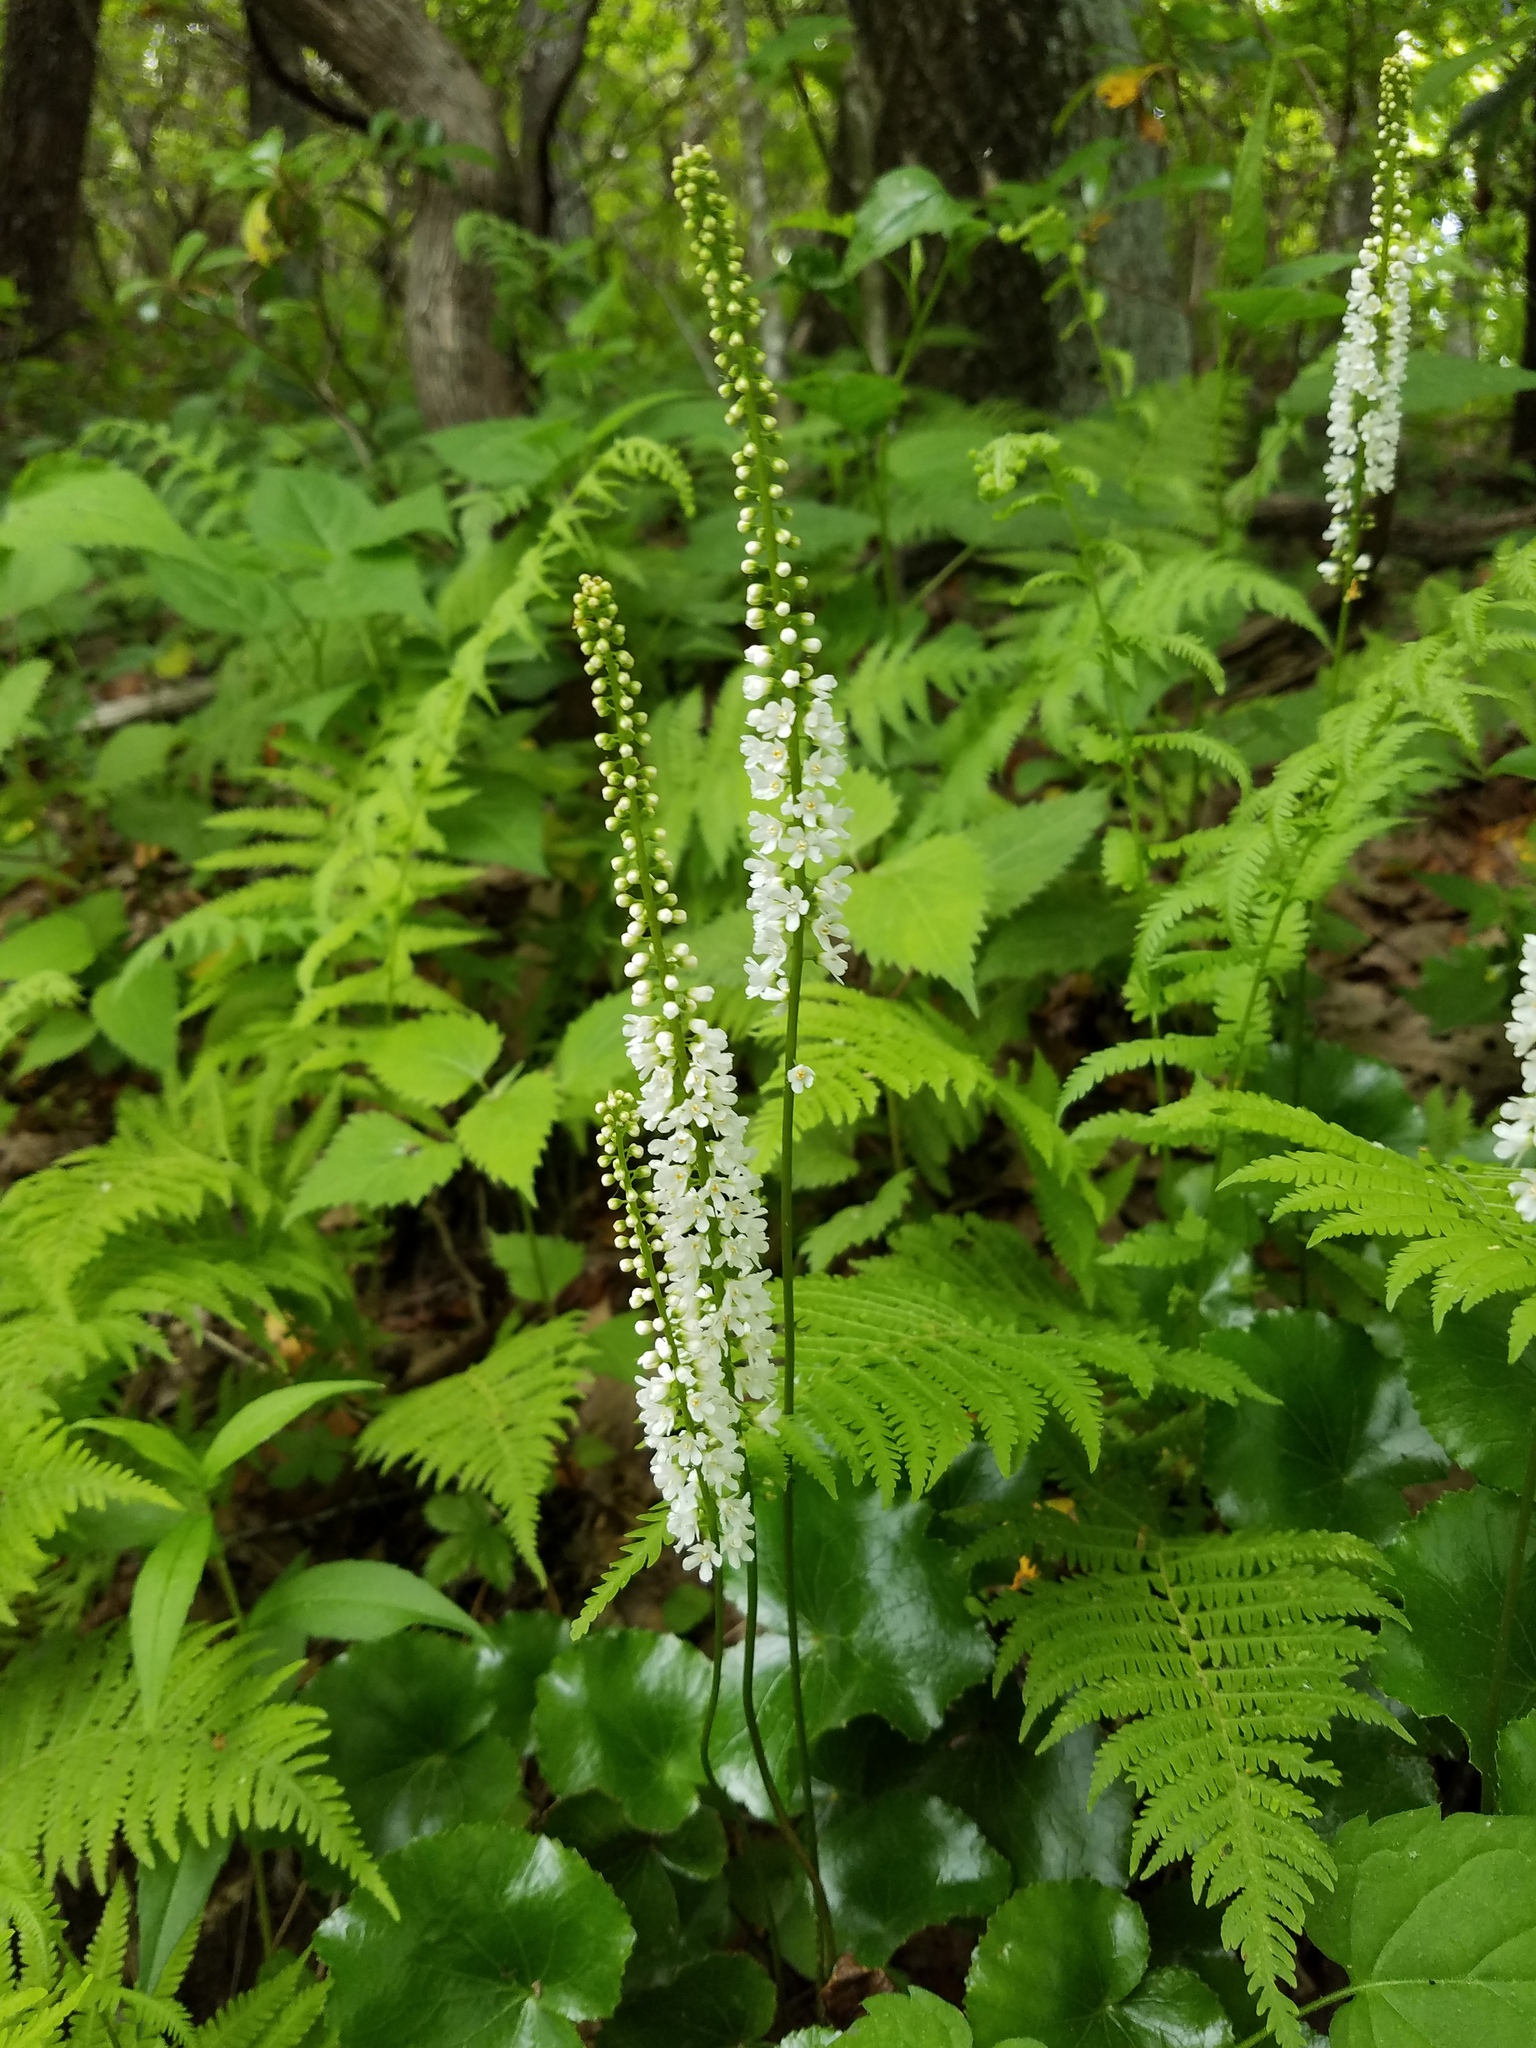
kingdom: Plantae
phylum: Tracheophyta
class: Magnoliopsida
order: Ericales
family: Diapensiaceae
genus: Galax
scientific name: Galax urceolata
